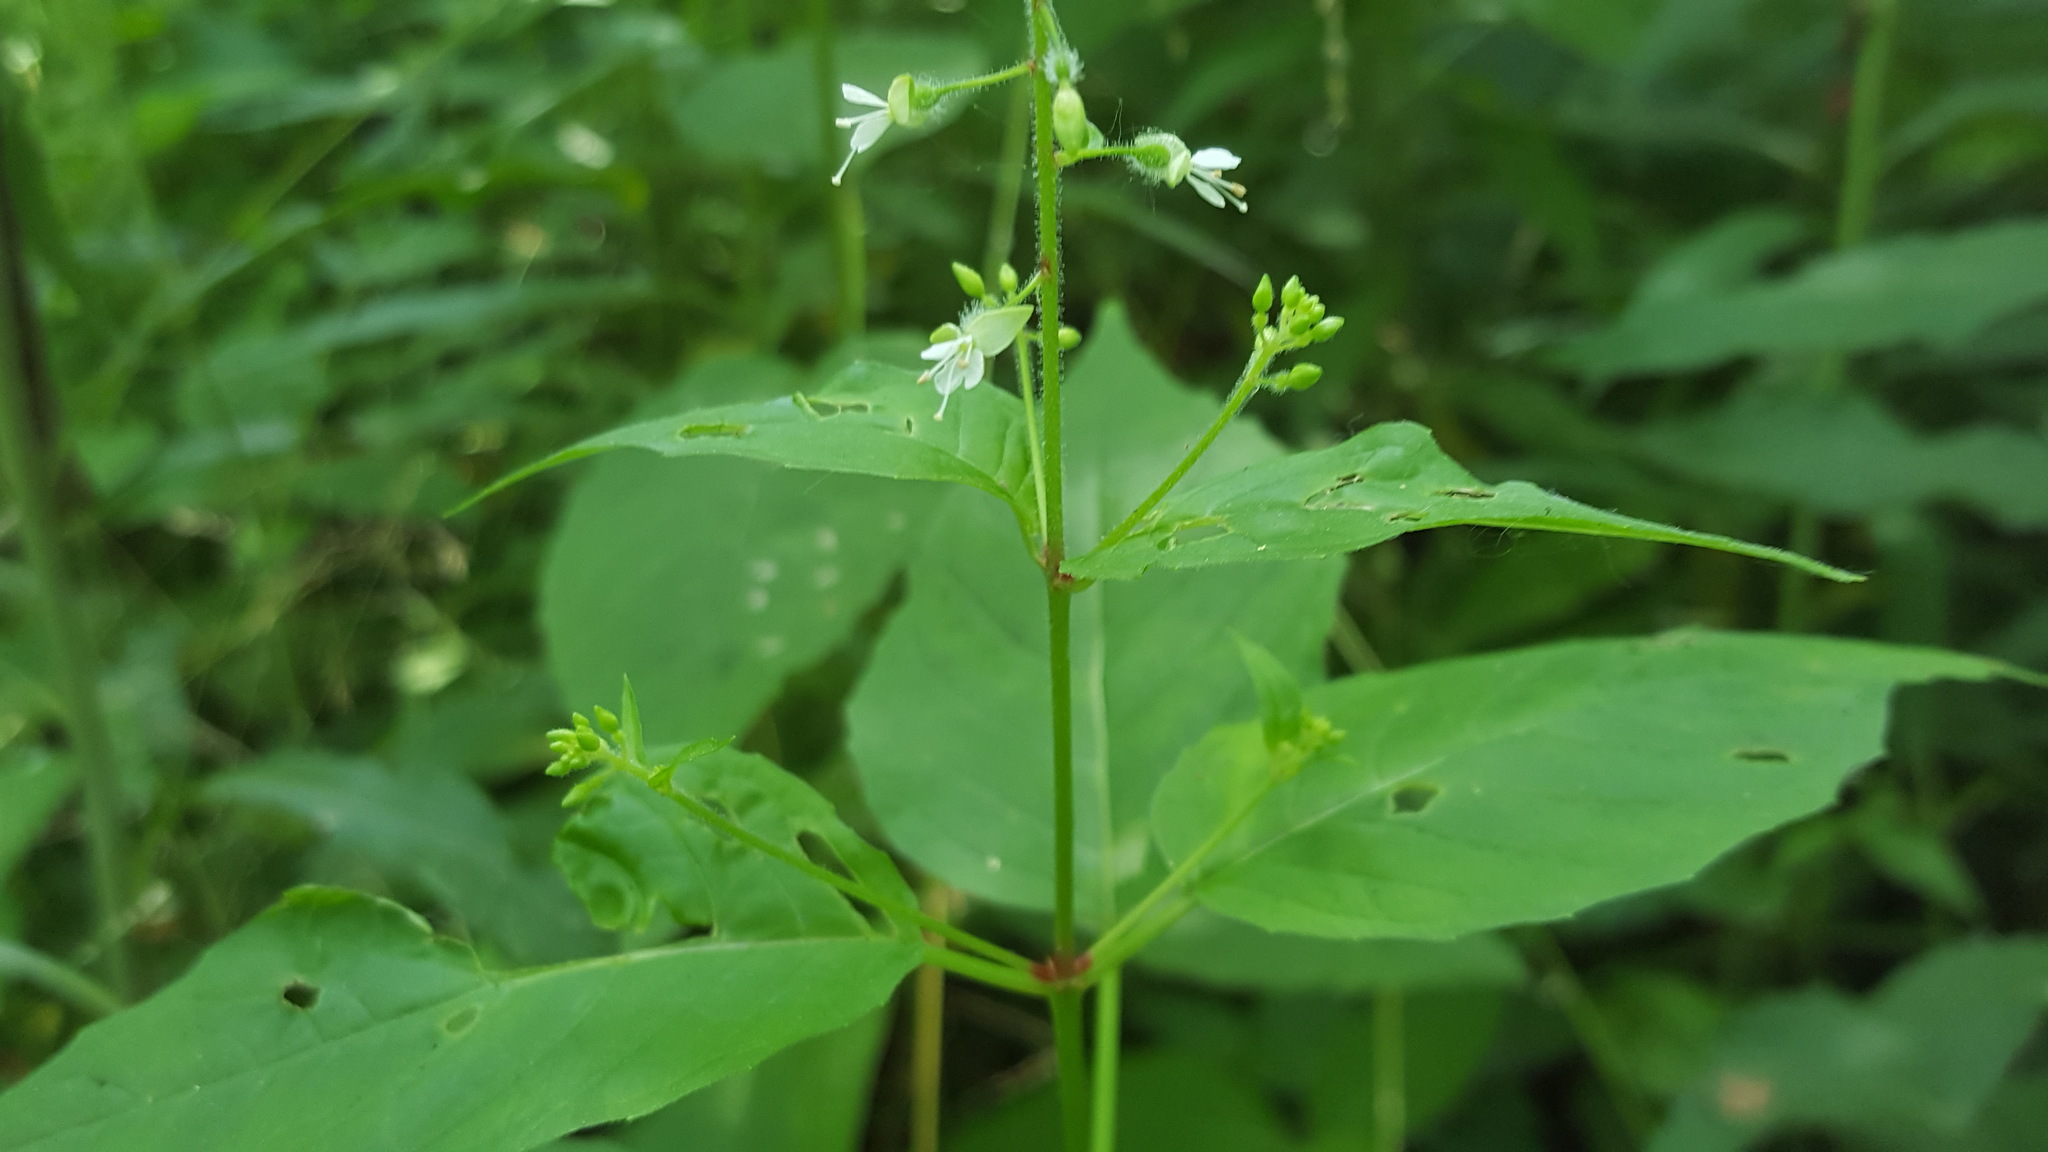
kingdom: Plantae
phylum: Tracheophyta
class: Magnoliopsida
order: Myrtales
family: Onagraceae
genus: Circaea
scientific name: Circaea canadensis
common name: Broad-leaved enchanter's nightshade
